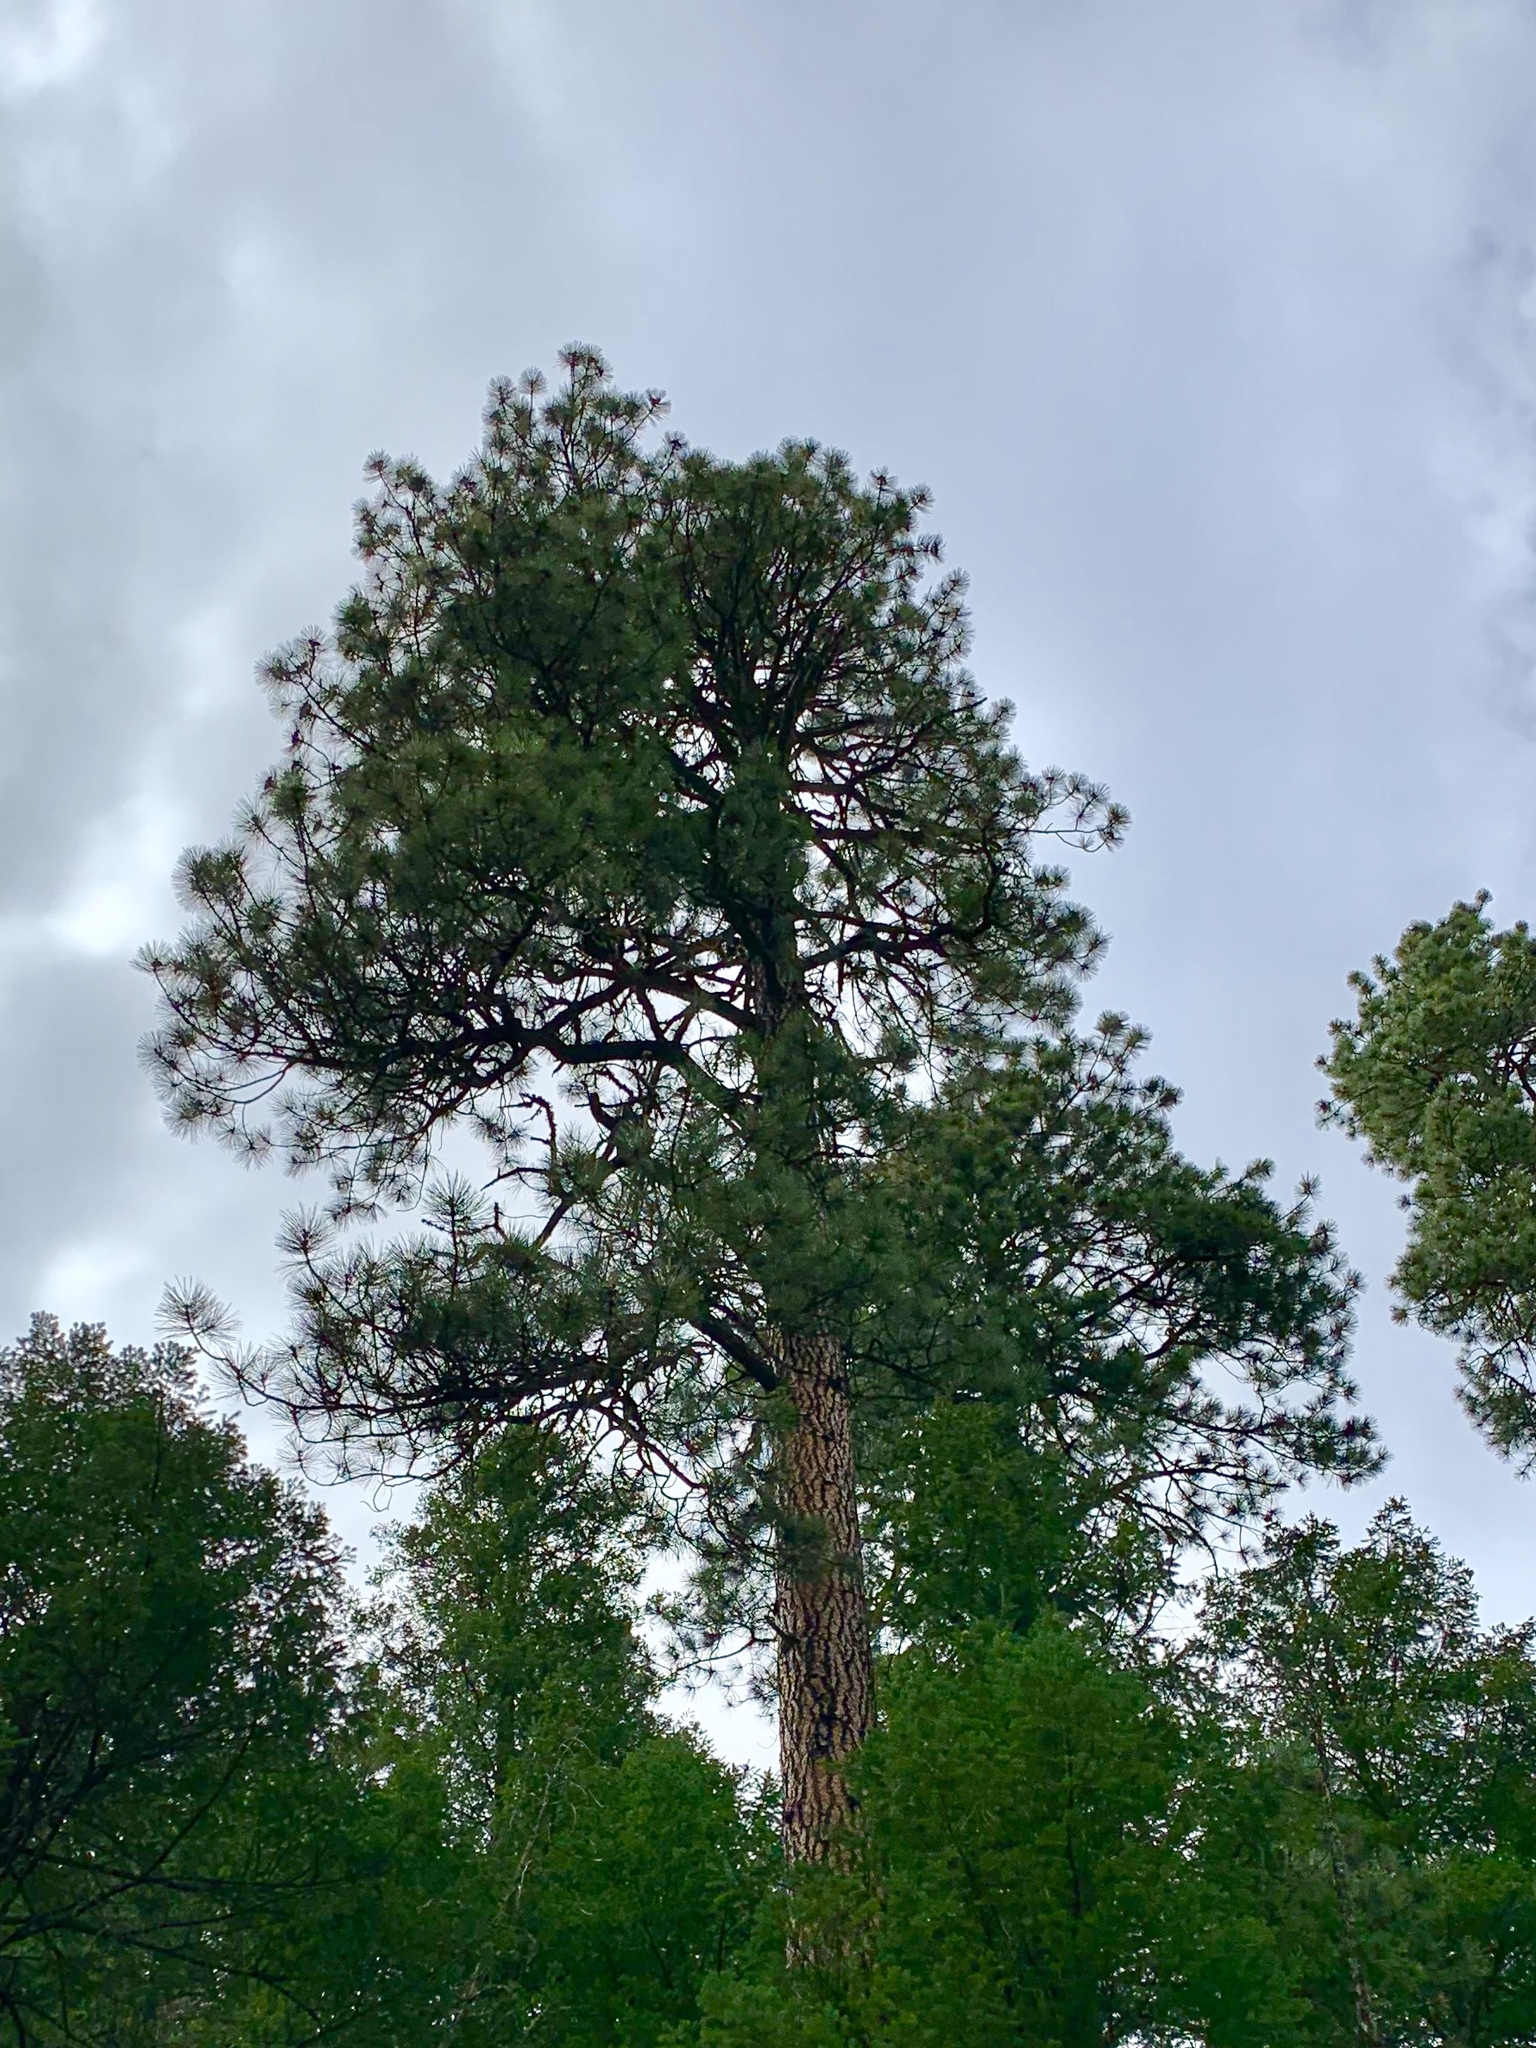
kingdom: Plantae
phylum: Tracheophyta
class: Pinopsida
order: Pinales
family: Pinaceae
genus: Pinus
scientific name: Pinus ponderosa
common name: Western yellow-pine
